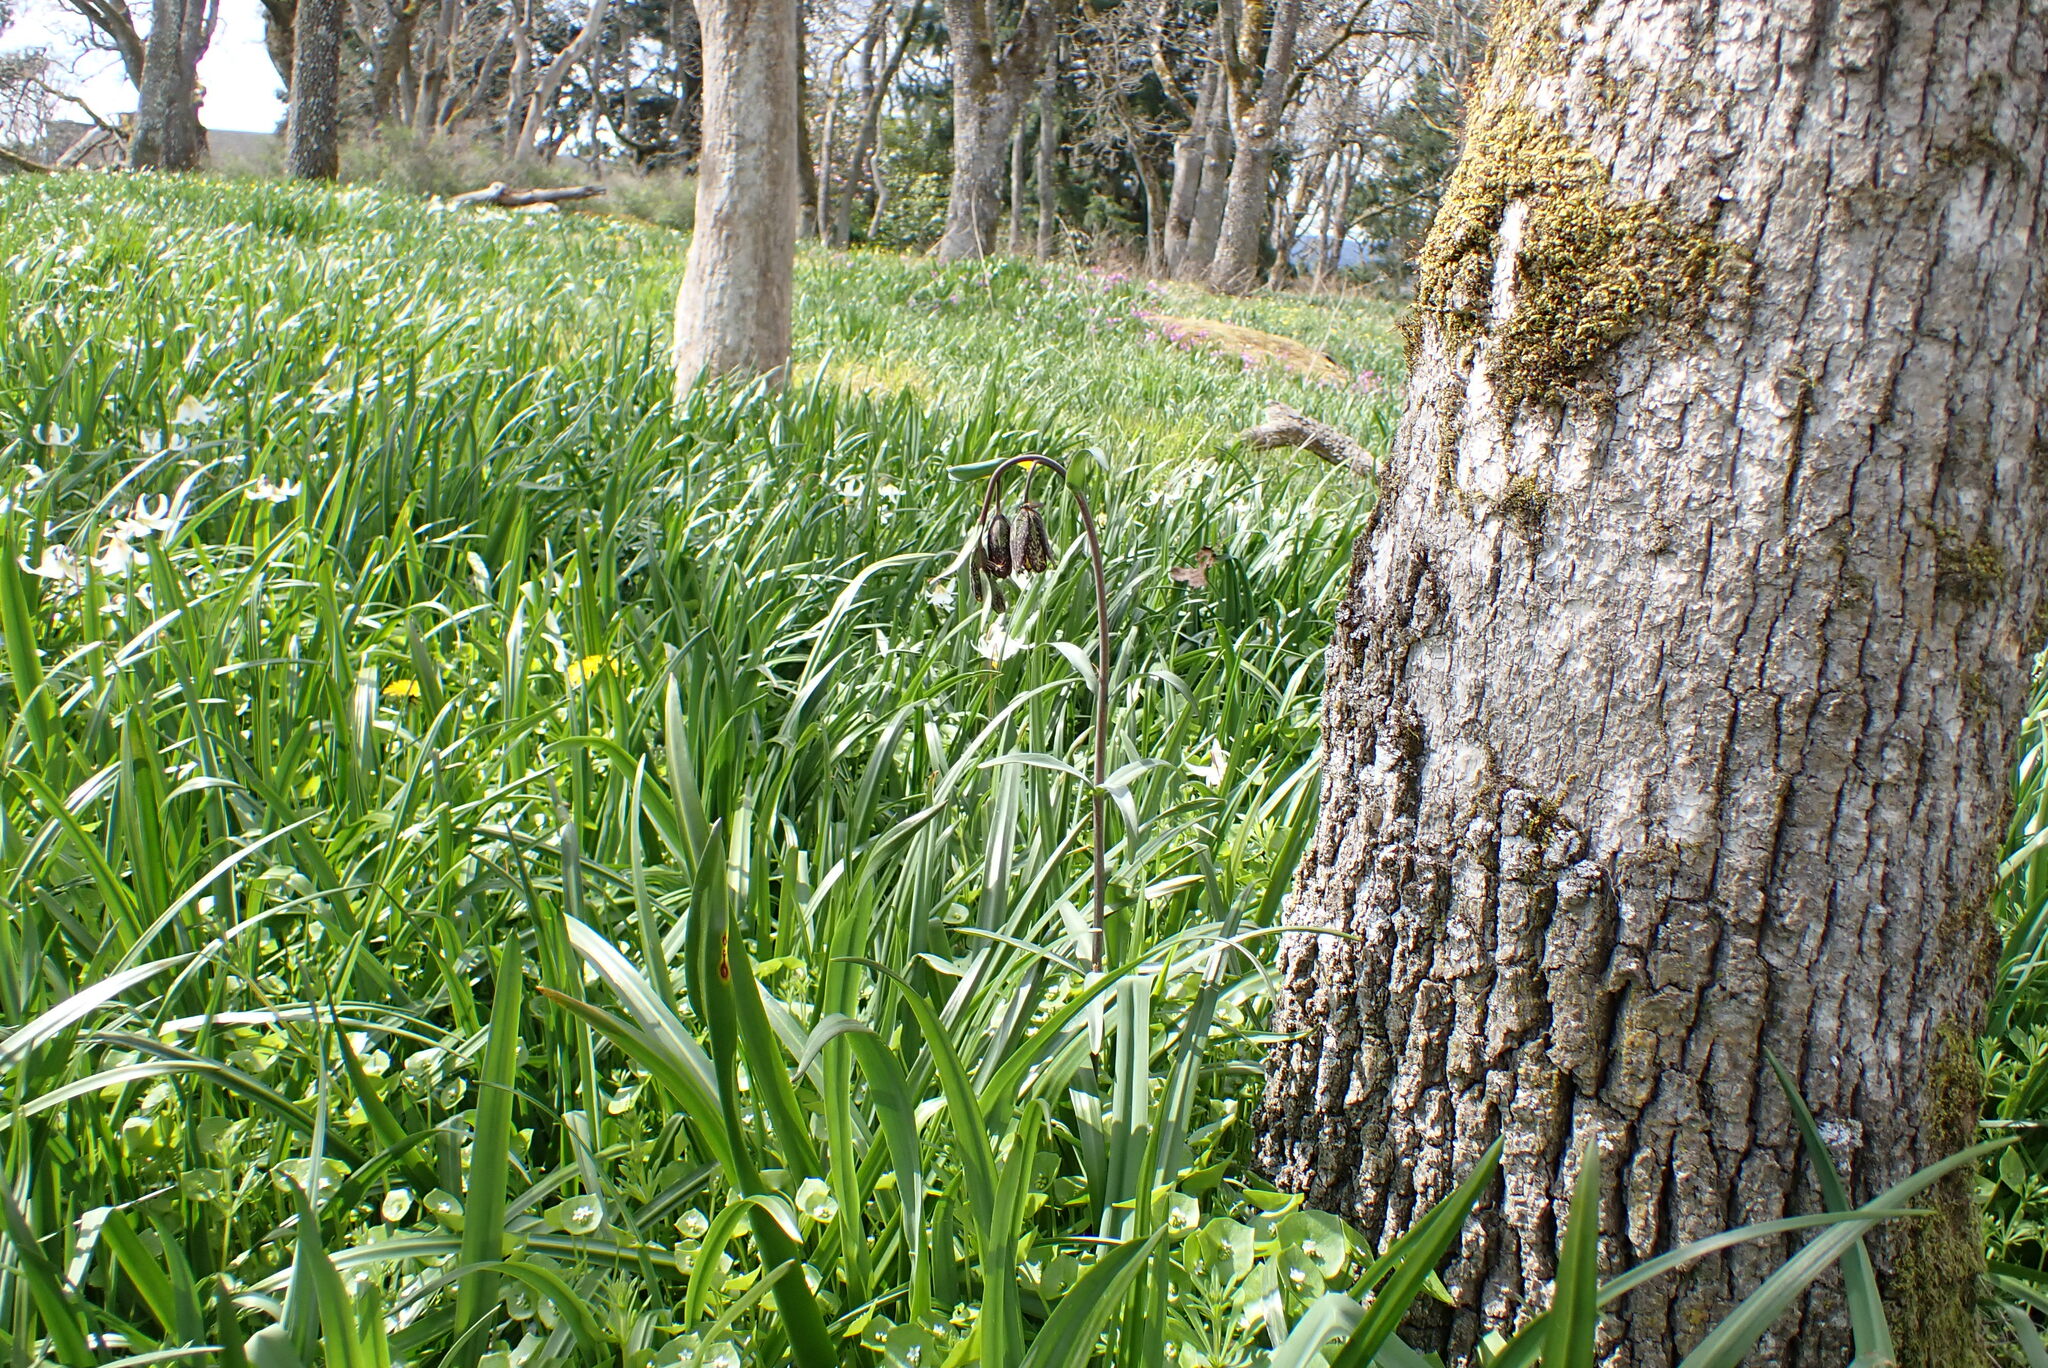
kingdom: Plantae
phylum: Tracheophyta
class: Liliopsida
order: Liliales
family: Liliaceae
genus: Fritillaria
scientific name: Fritillaria affinis
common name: Ojai fritillary
